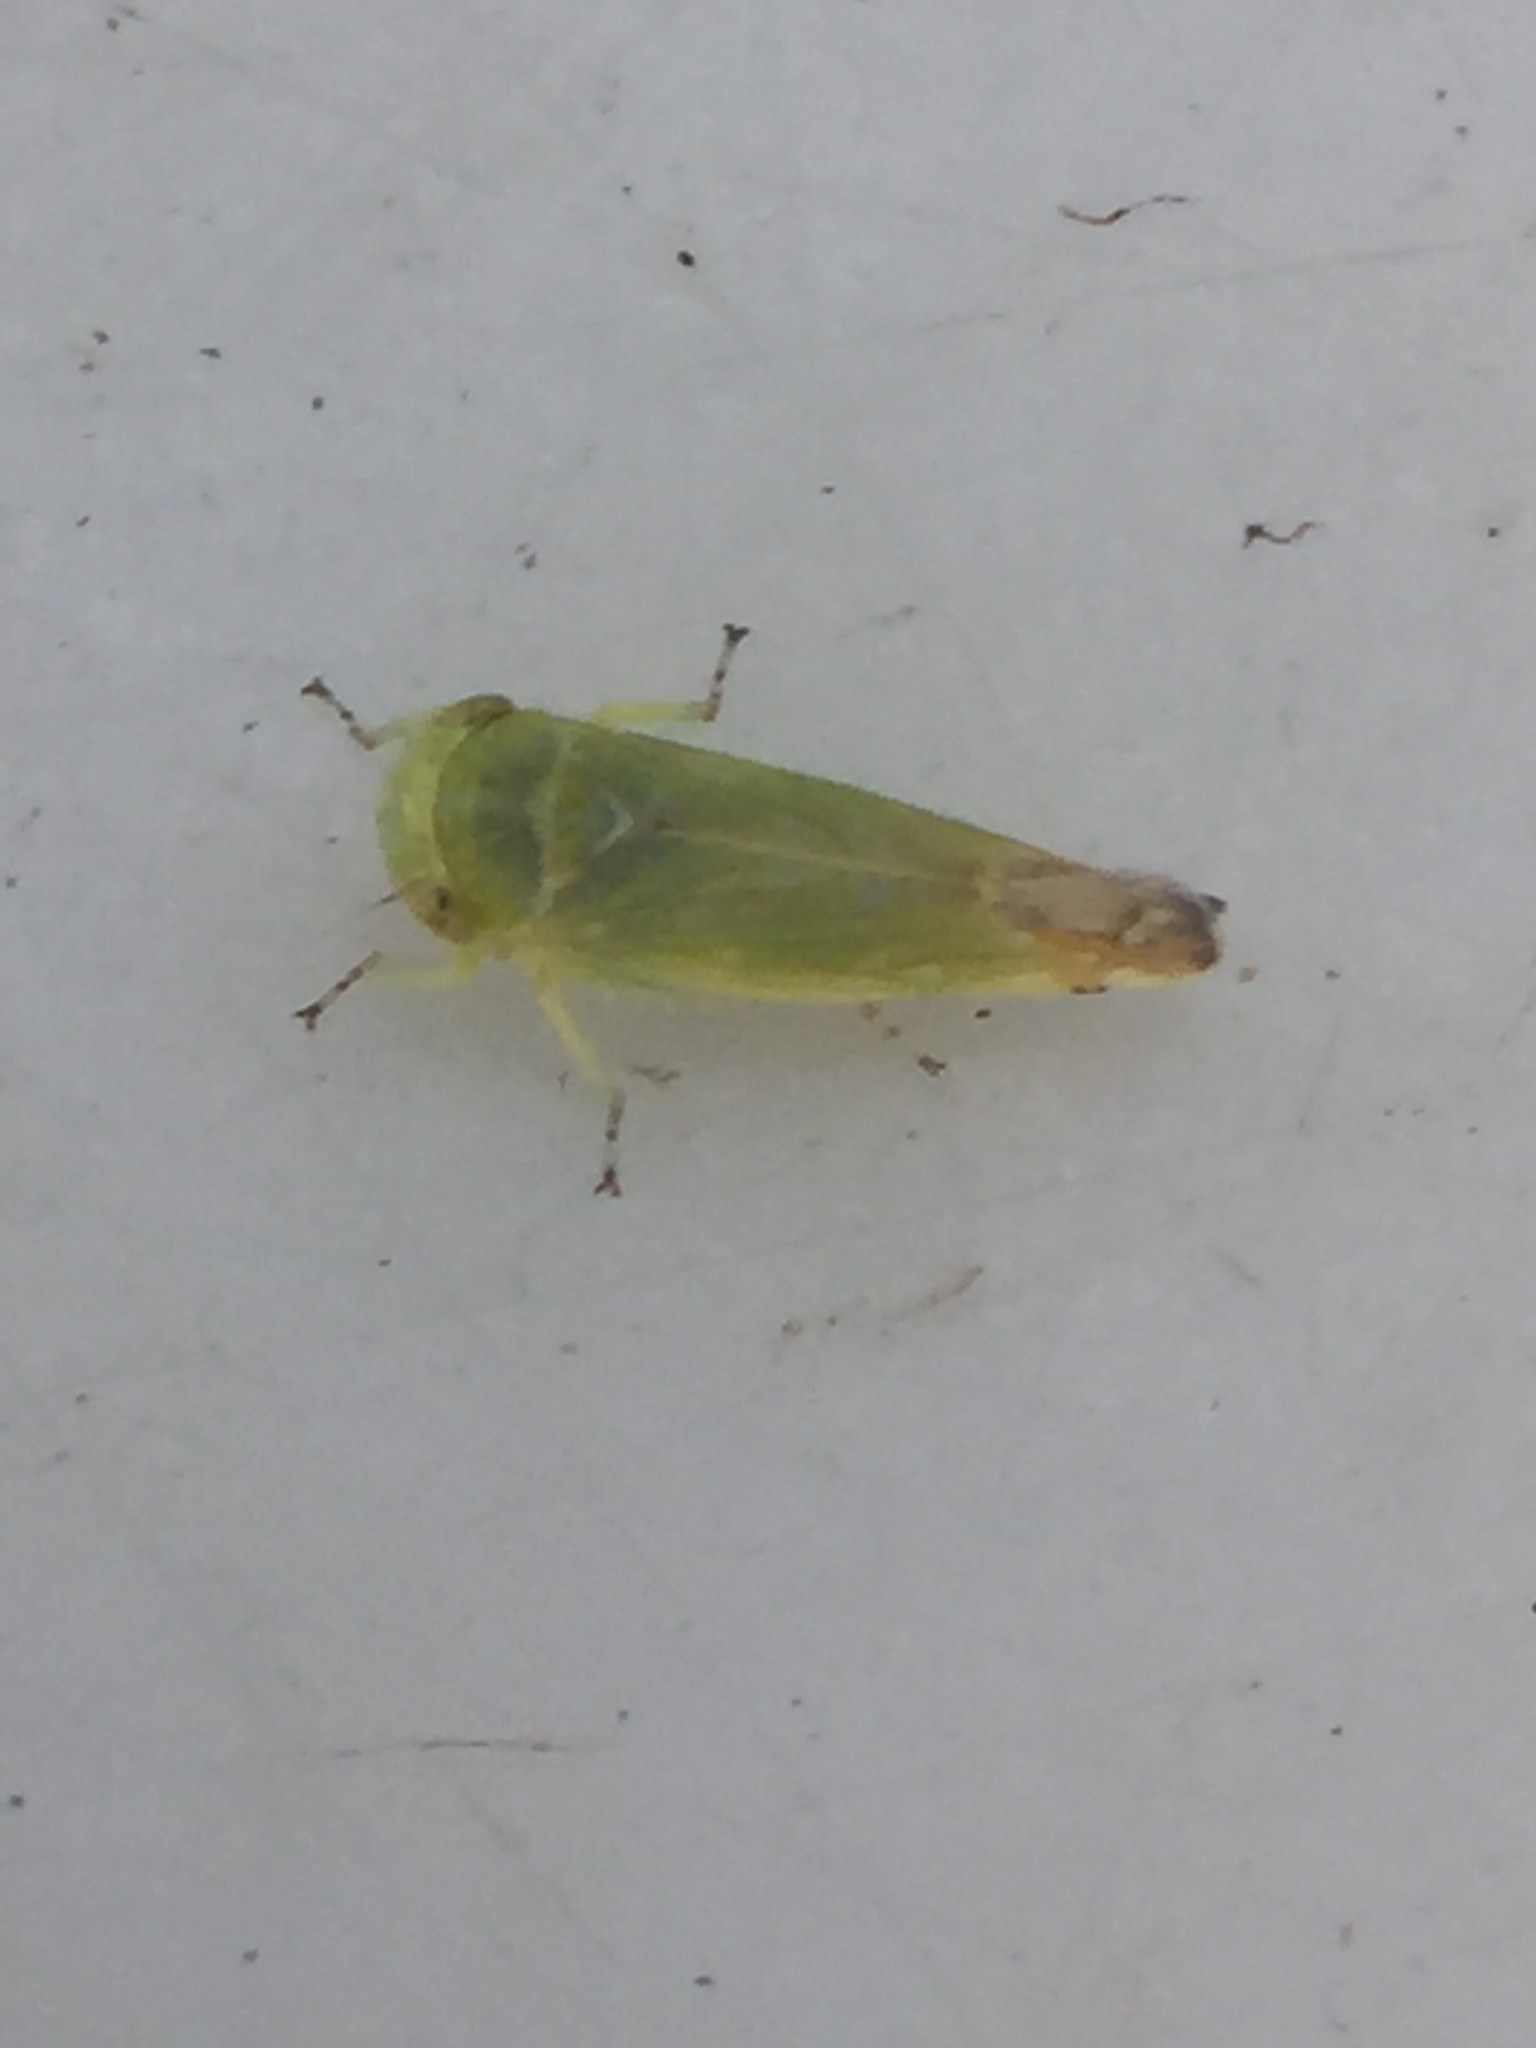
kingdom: Animalia
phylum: Arthropoda
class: Insecta
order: Hemiptera
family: Cicadellidae
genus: Opsius
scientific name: Opsius stactogalus
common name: Leafhopper
